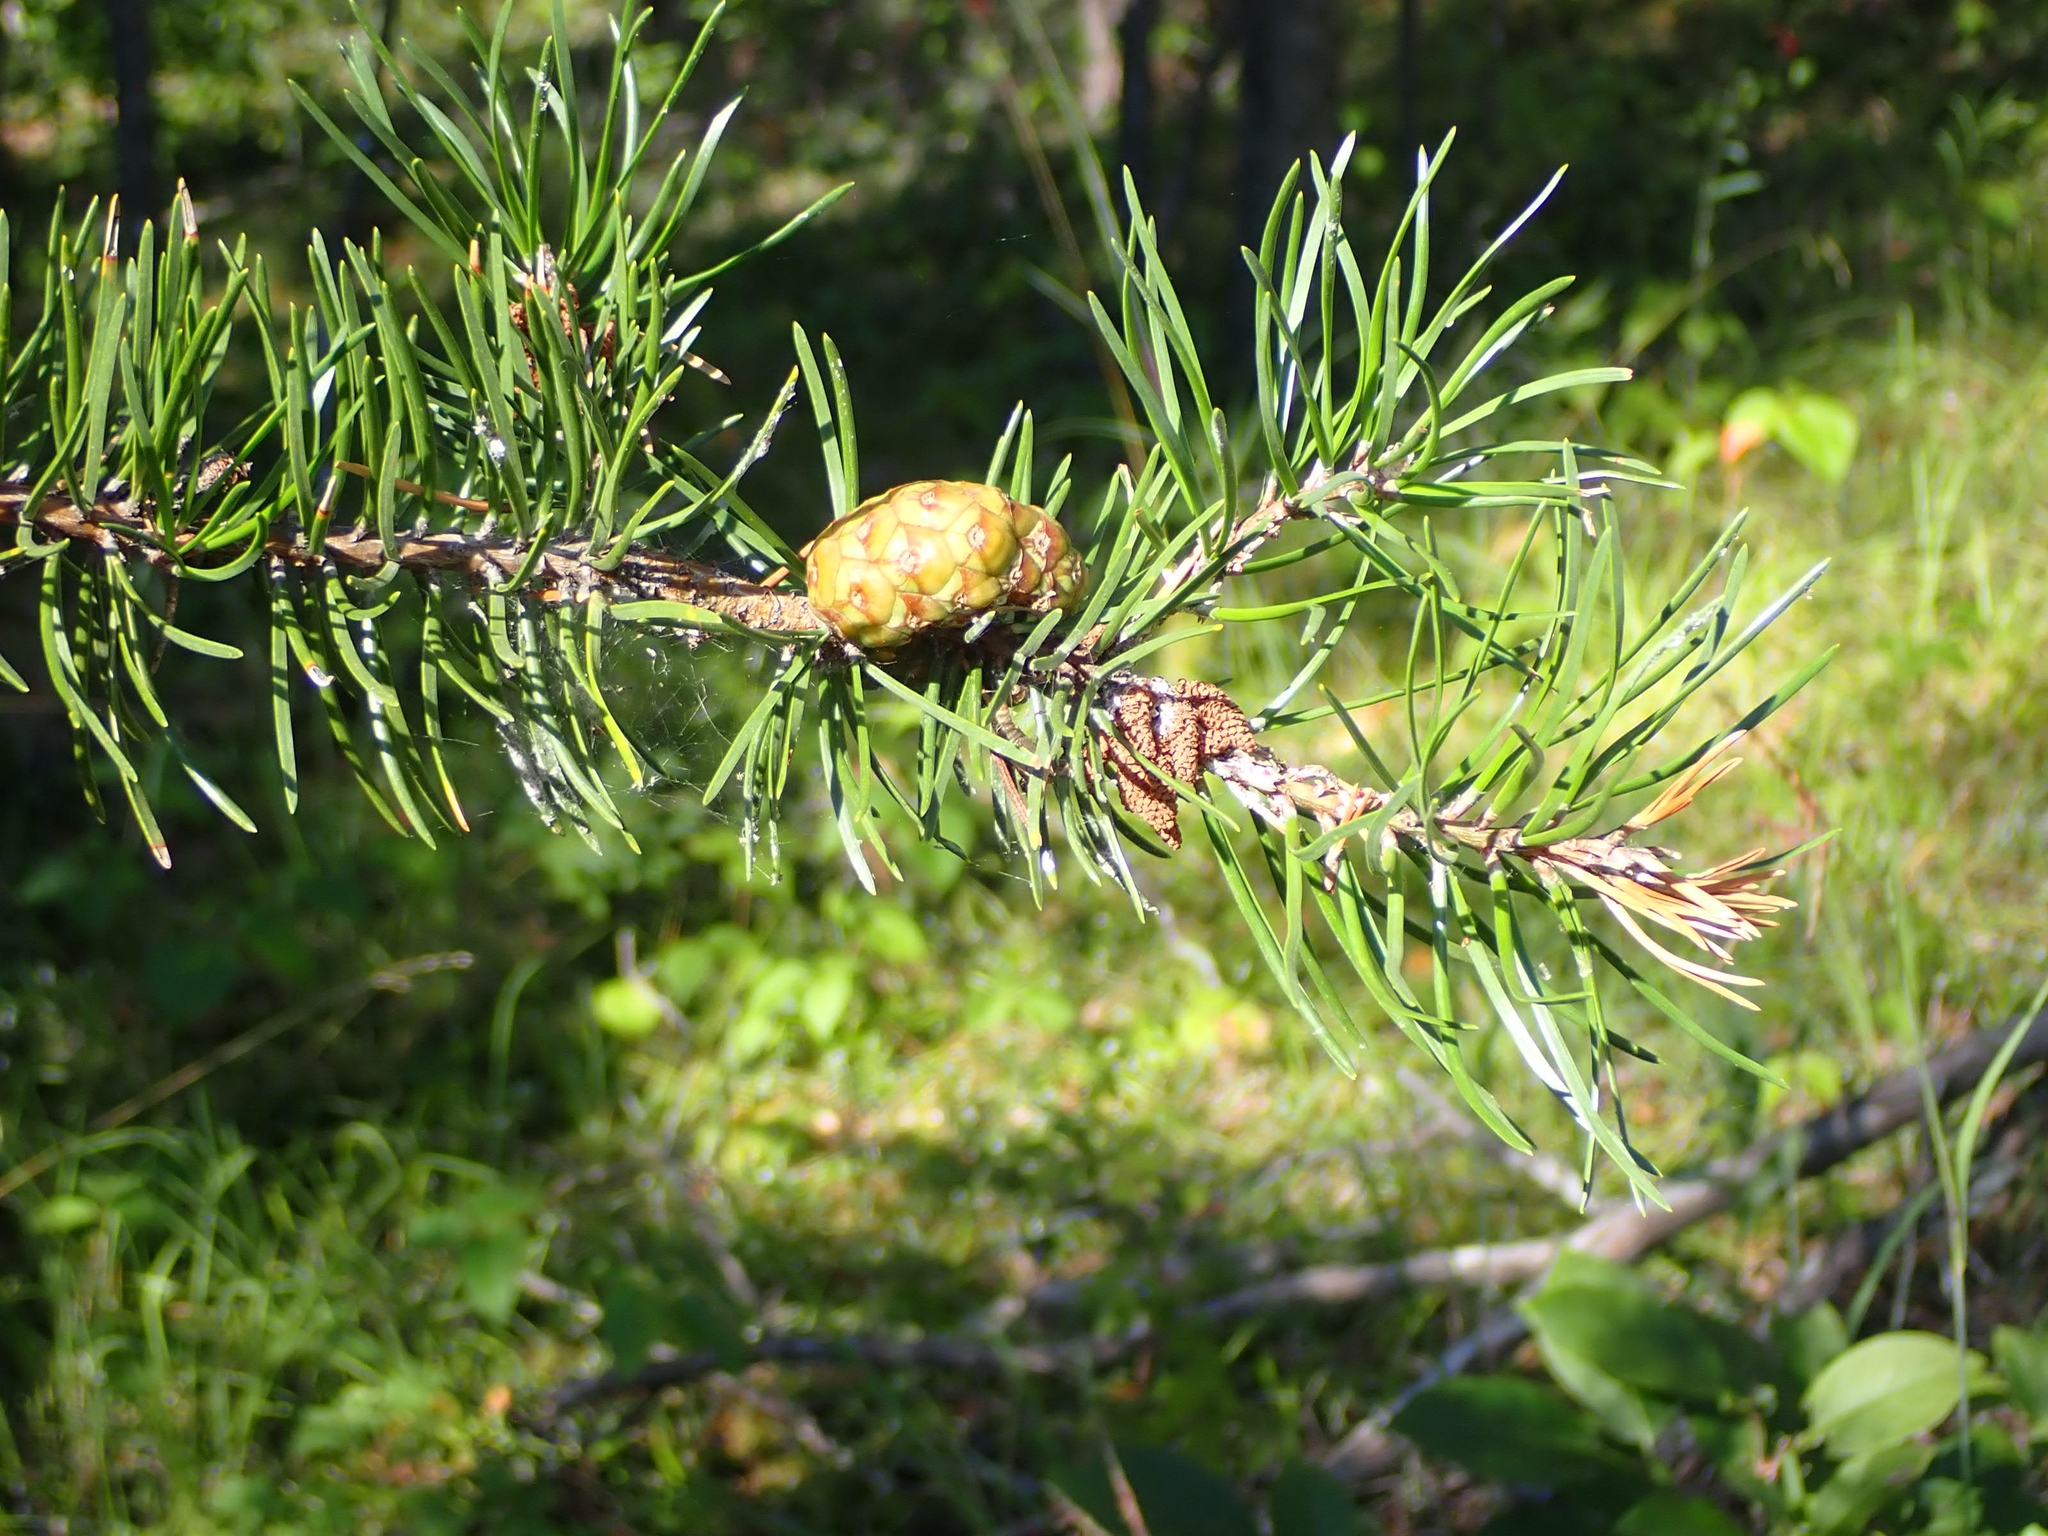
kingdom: Plantae
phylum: Tracheophyta
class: Pinopsida
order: Pinales
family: Pinaceae
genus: Pinus
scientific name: Pinus banksiana
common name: Jack pine
